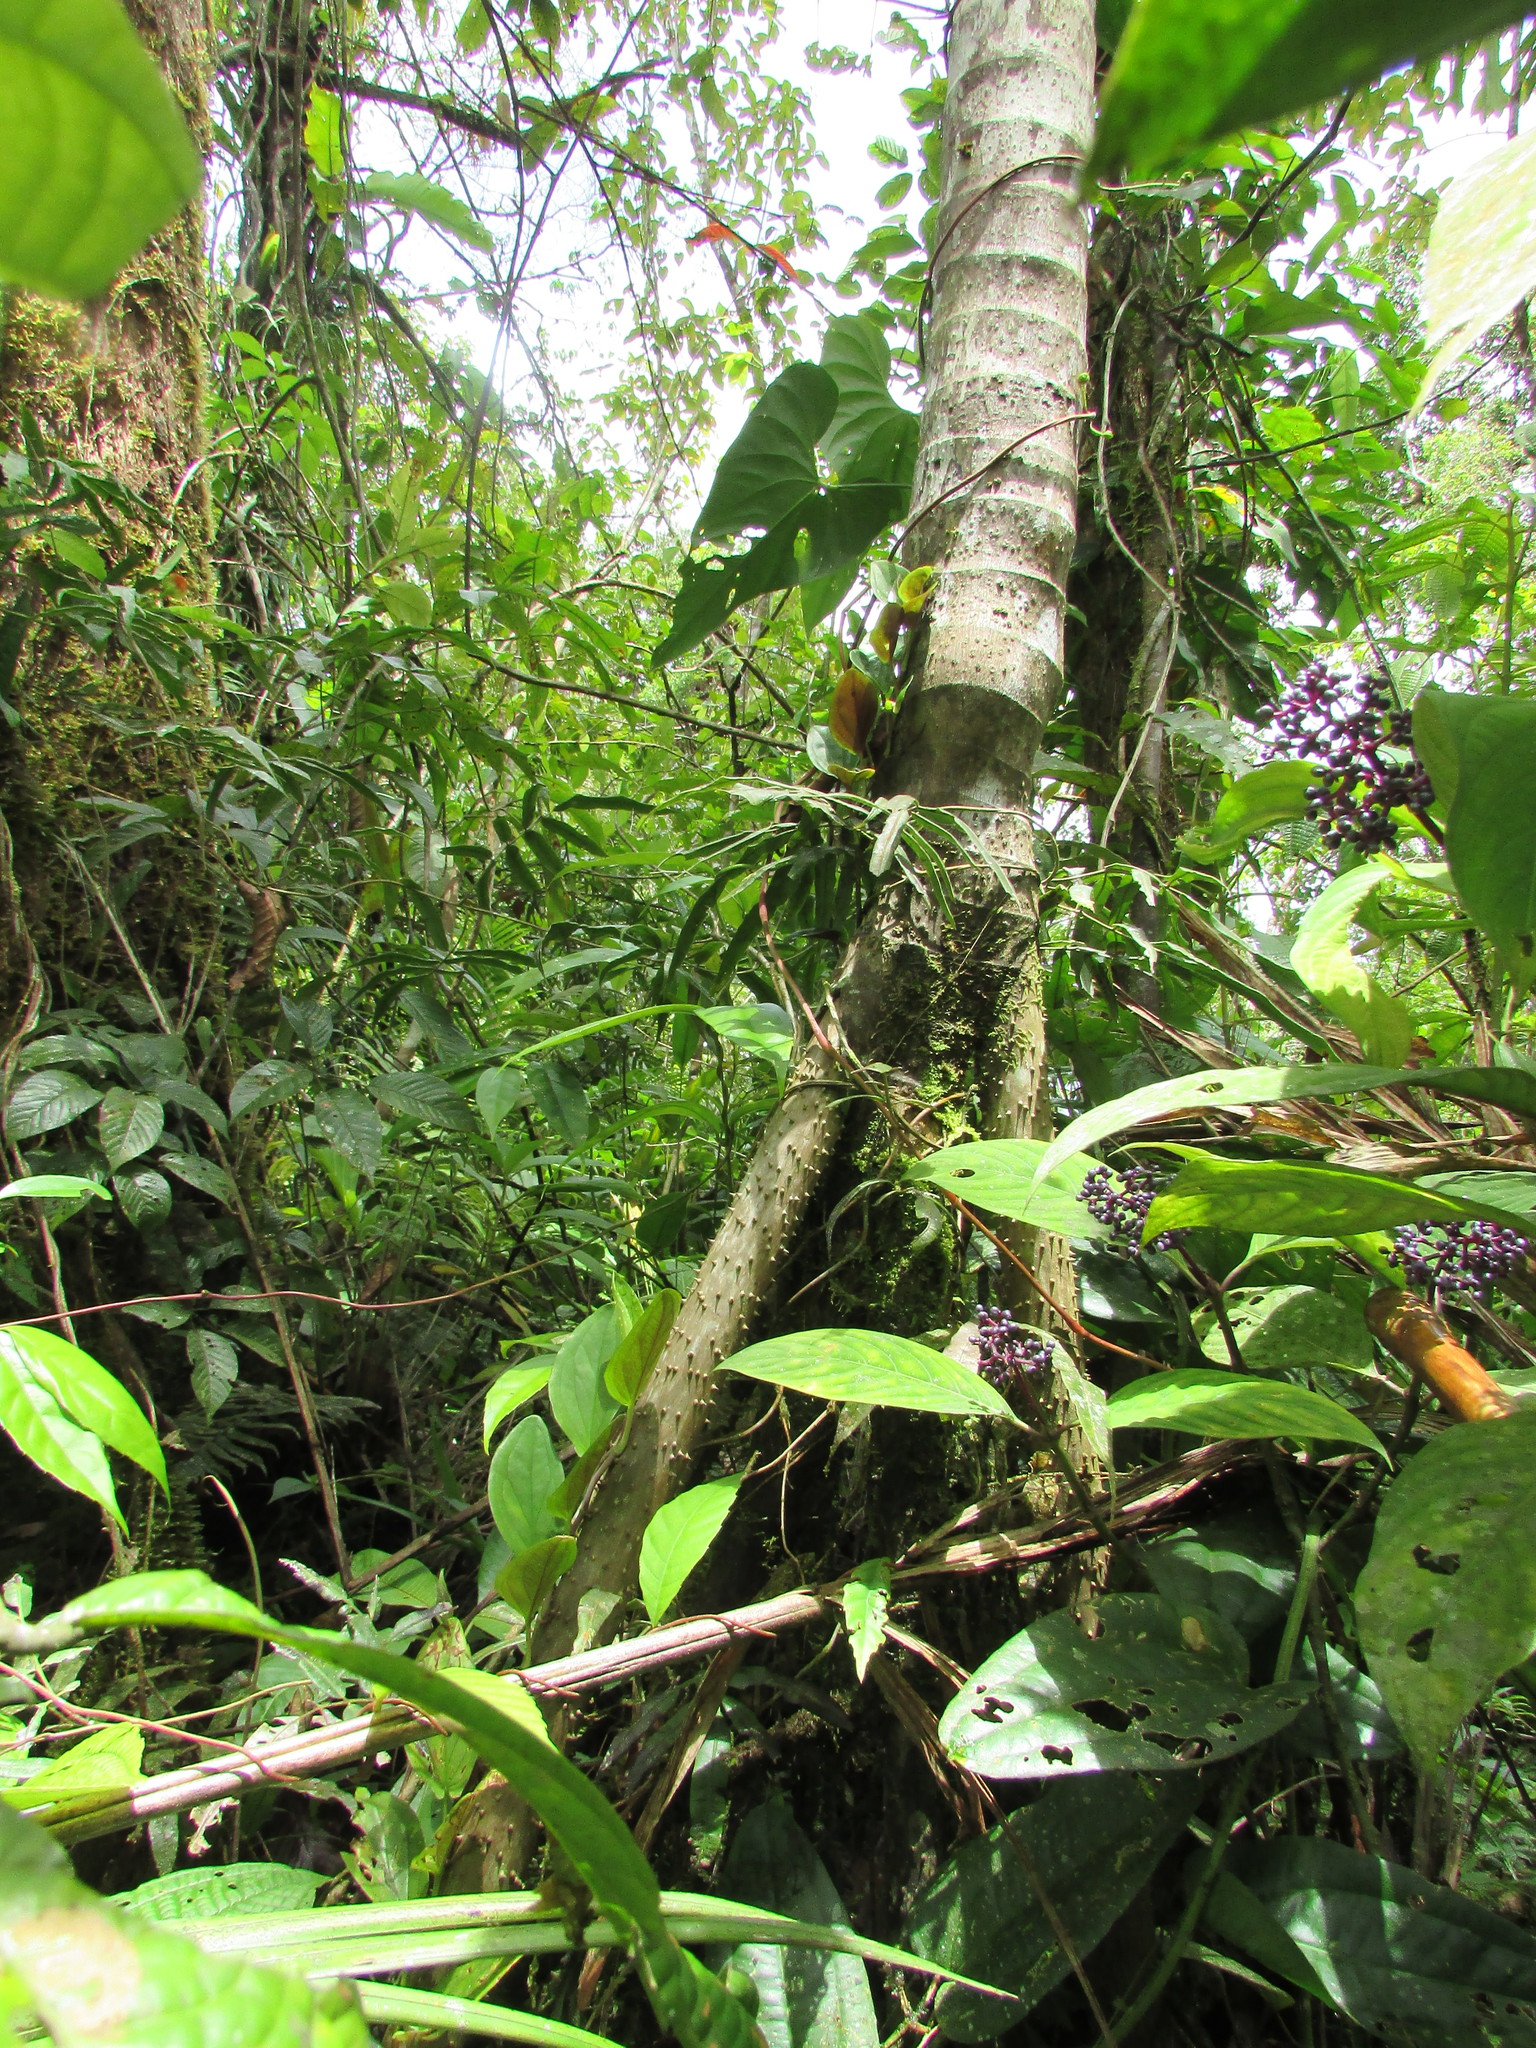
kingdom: Plantae
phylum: Tracheophyta
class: Liliopsida
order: Arecales
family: Arecaceae
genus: Socratea
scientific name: Socratea exorrhiza
